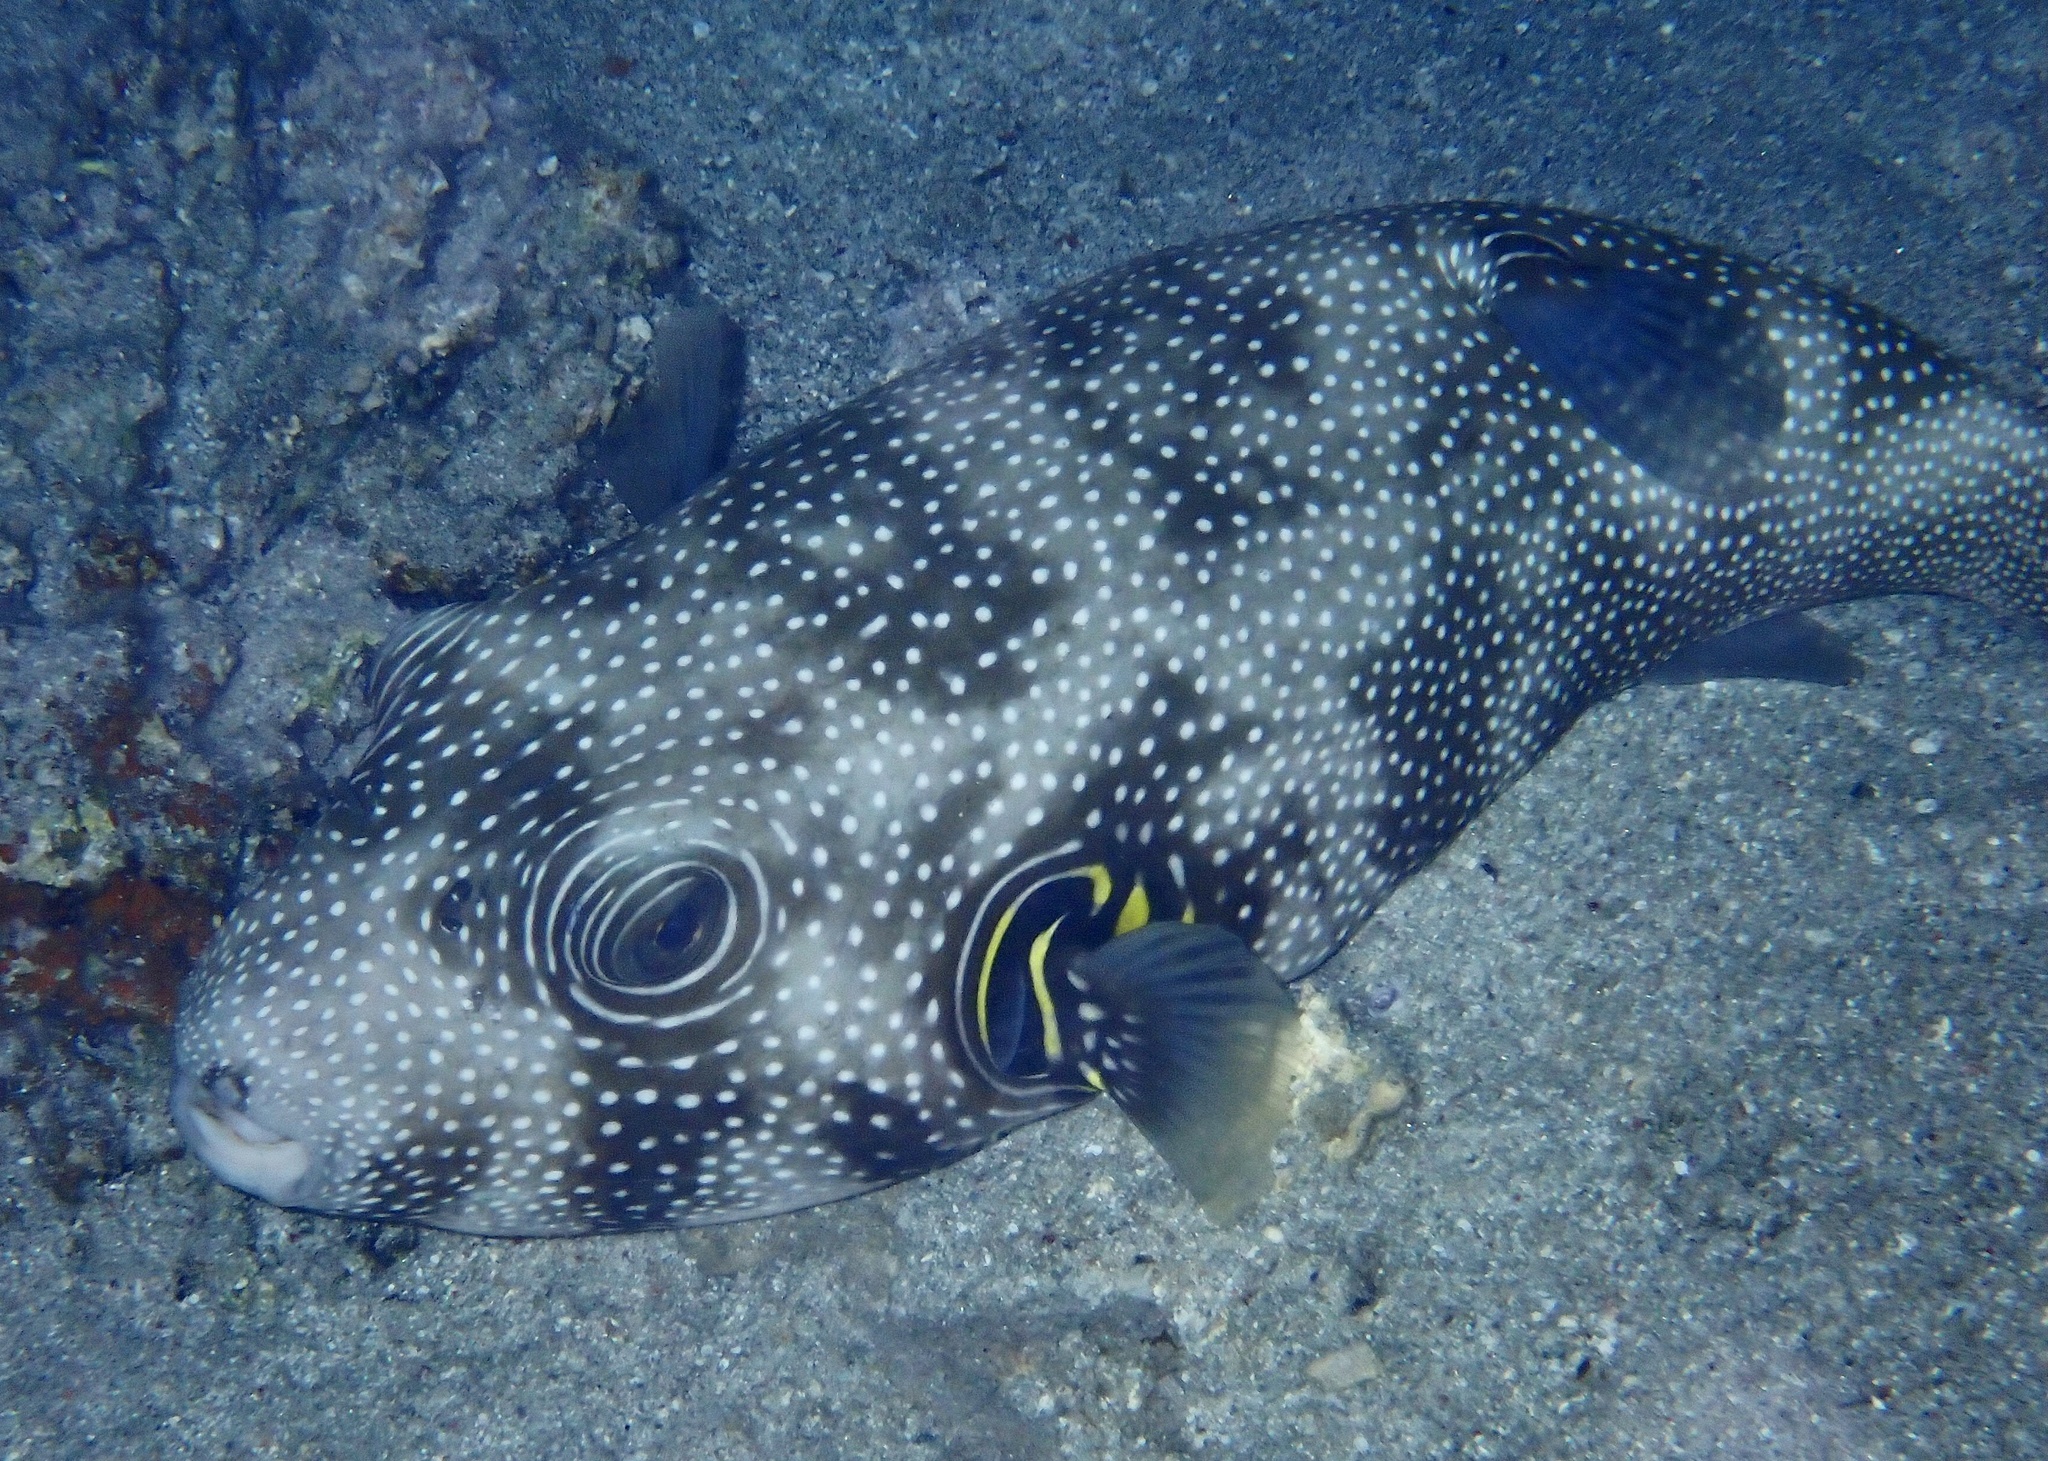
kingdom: Animalia
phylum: Chordata
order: Tetraodontiformes
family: Tetraodontidae
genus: Arothron
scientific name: Arothron hispidus
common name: Stripebelly puffer
